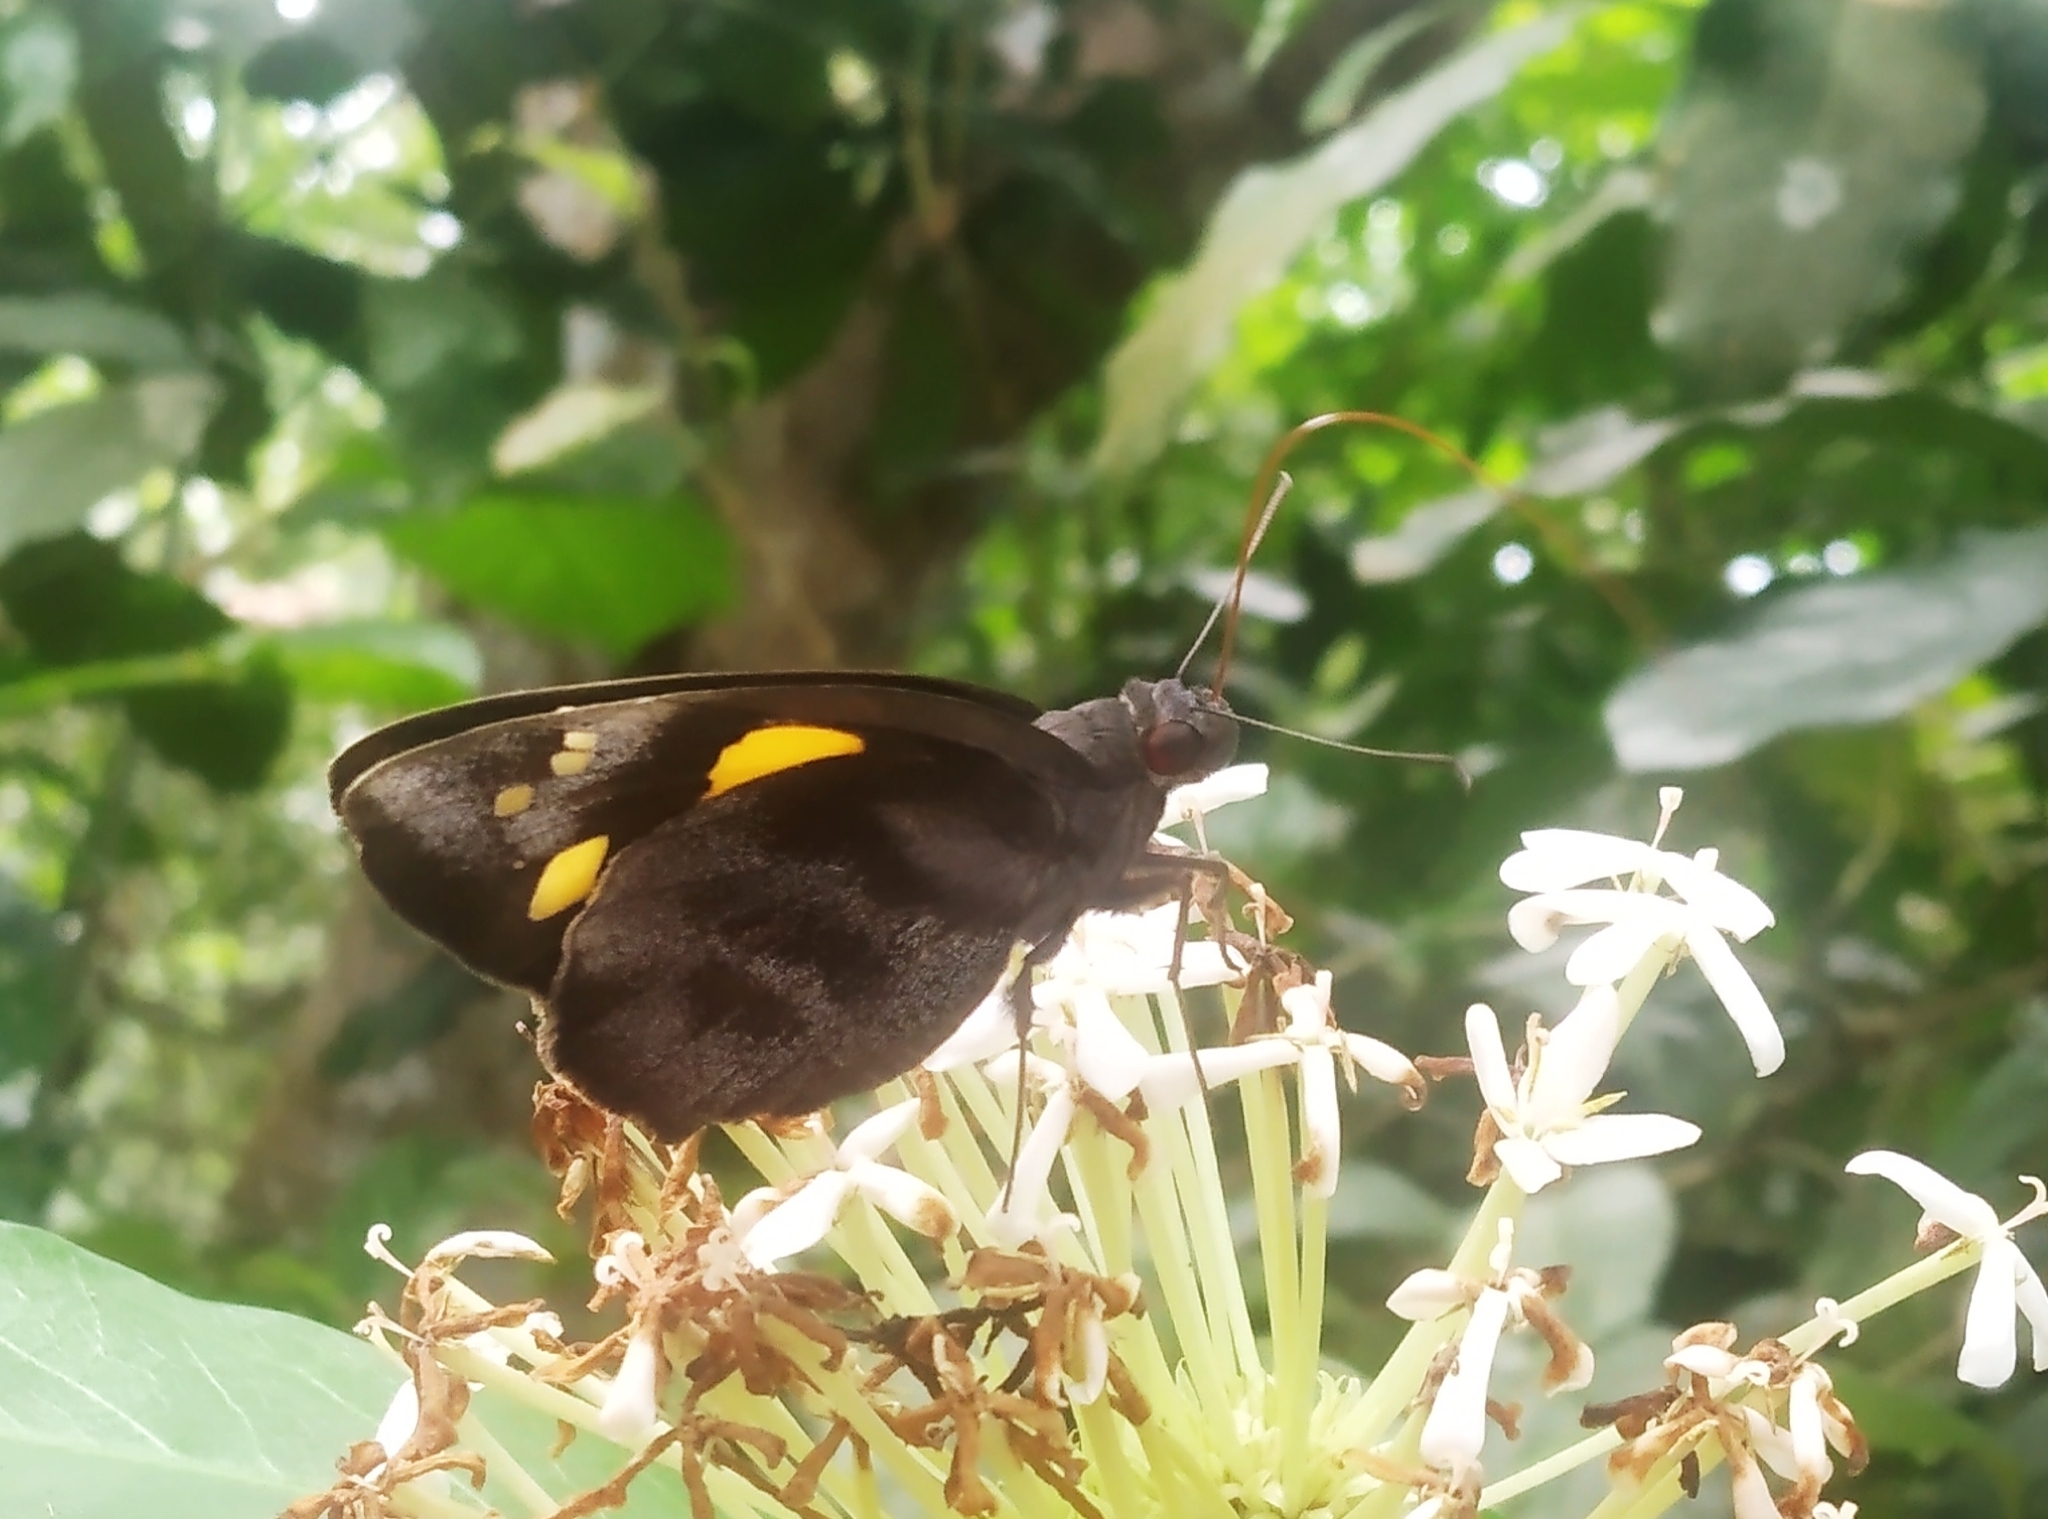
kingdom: Animalia
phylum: Arthropoda
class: Insecta
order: Lepidoptera
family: Hesperiidae
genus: Gangara
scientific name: Gangara thyrsis
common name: Giant redeye
